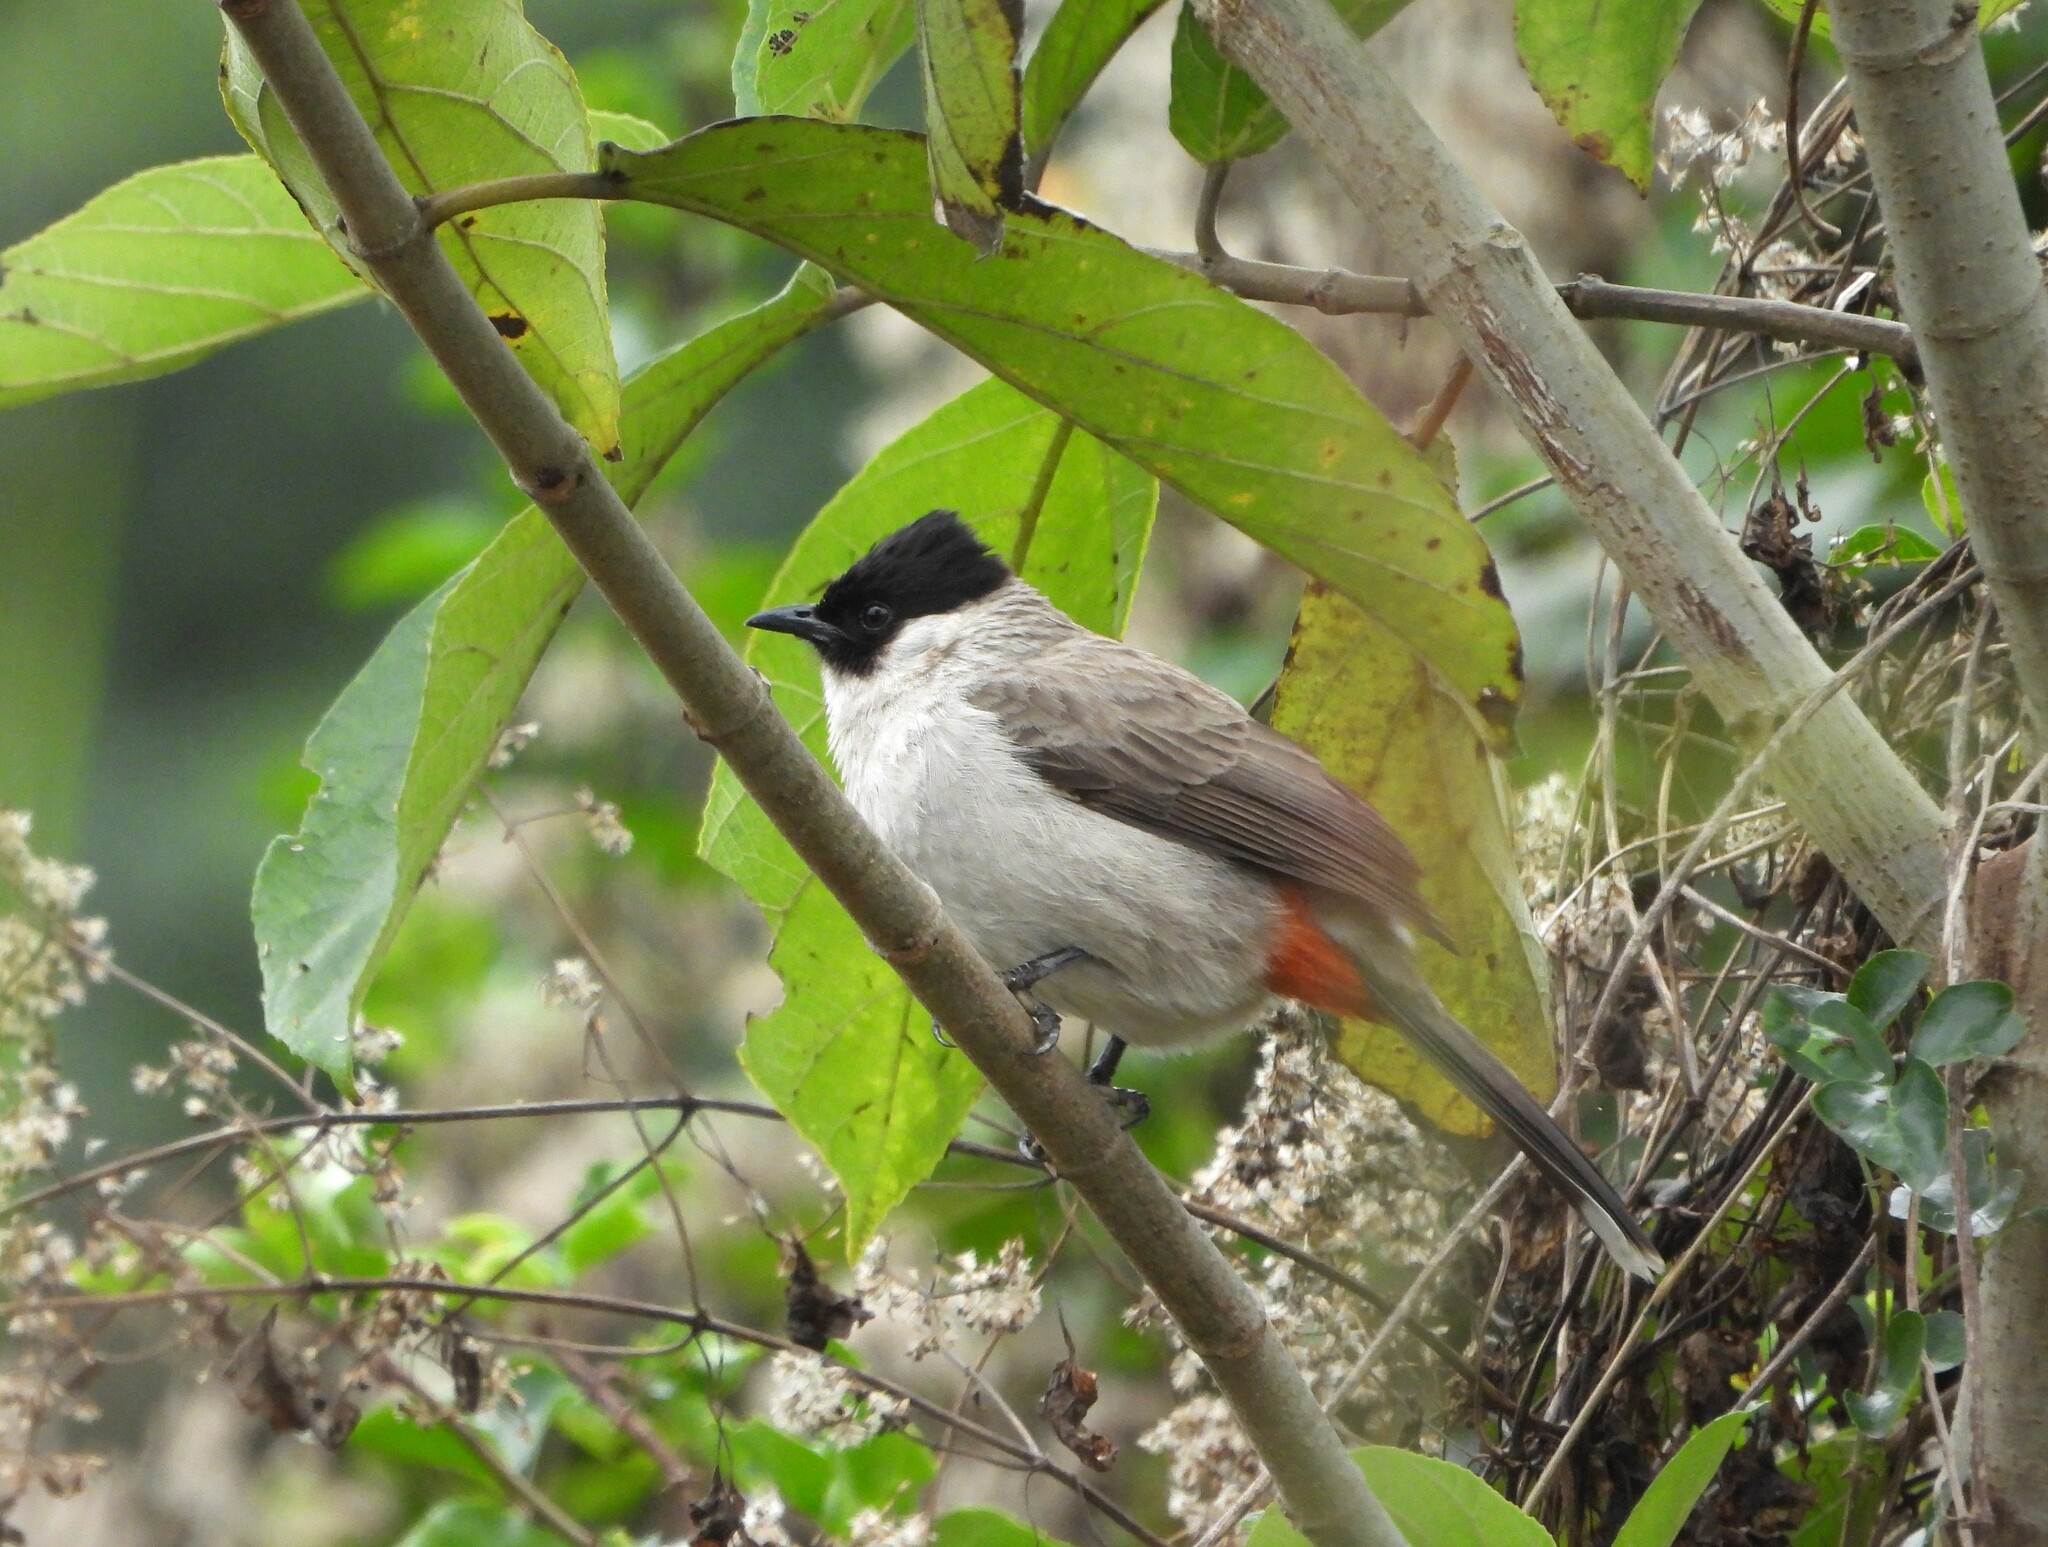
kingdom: Animalia
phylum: Chordata
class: Aves
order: Passeriformes
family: Pycnonotidae
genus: Pycnonotus
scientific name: Pycnonotus aurigaster
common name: Sooty-headed bulbul
